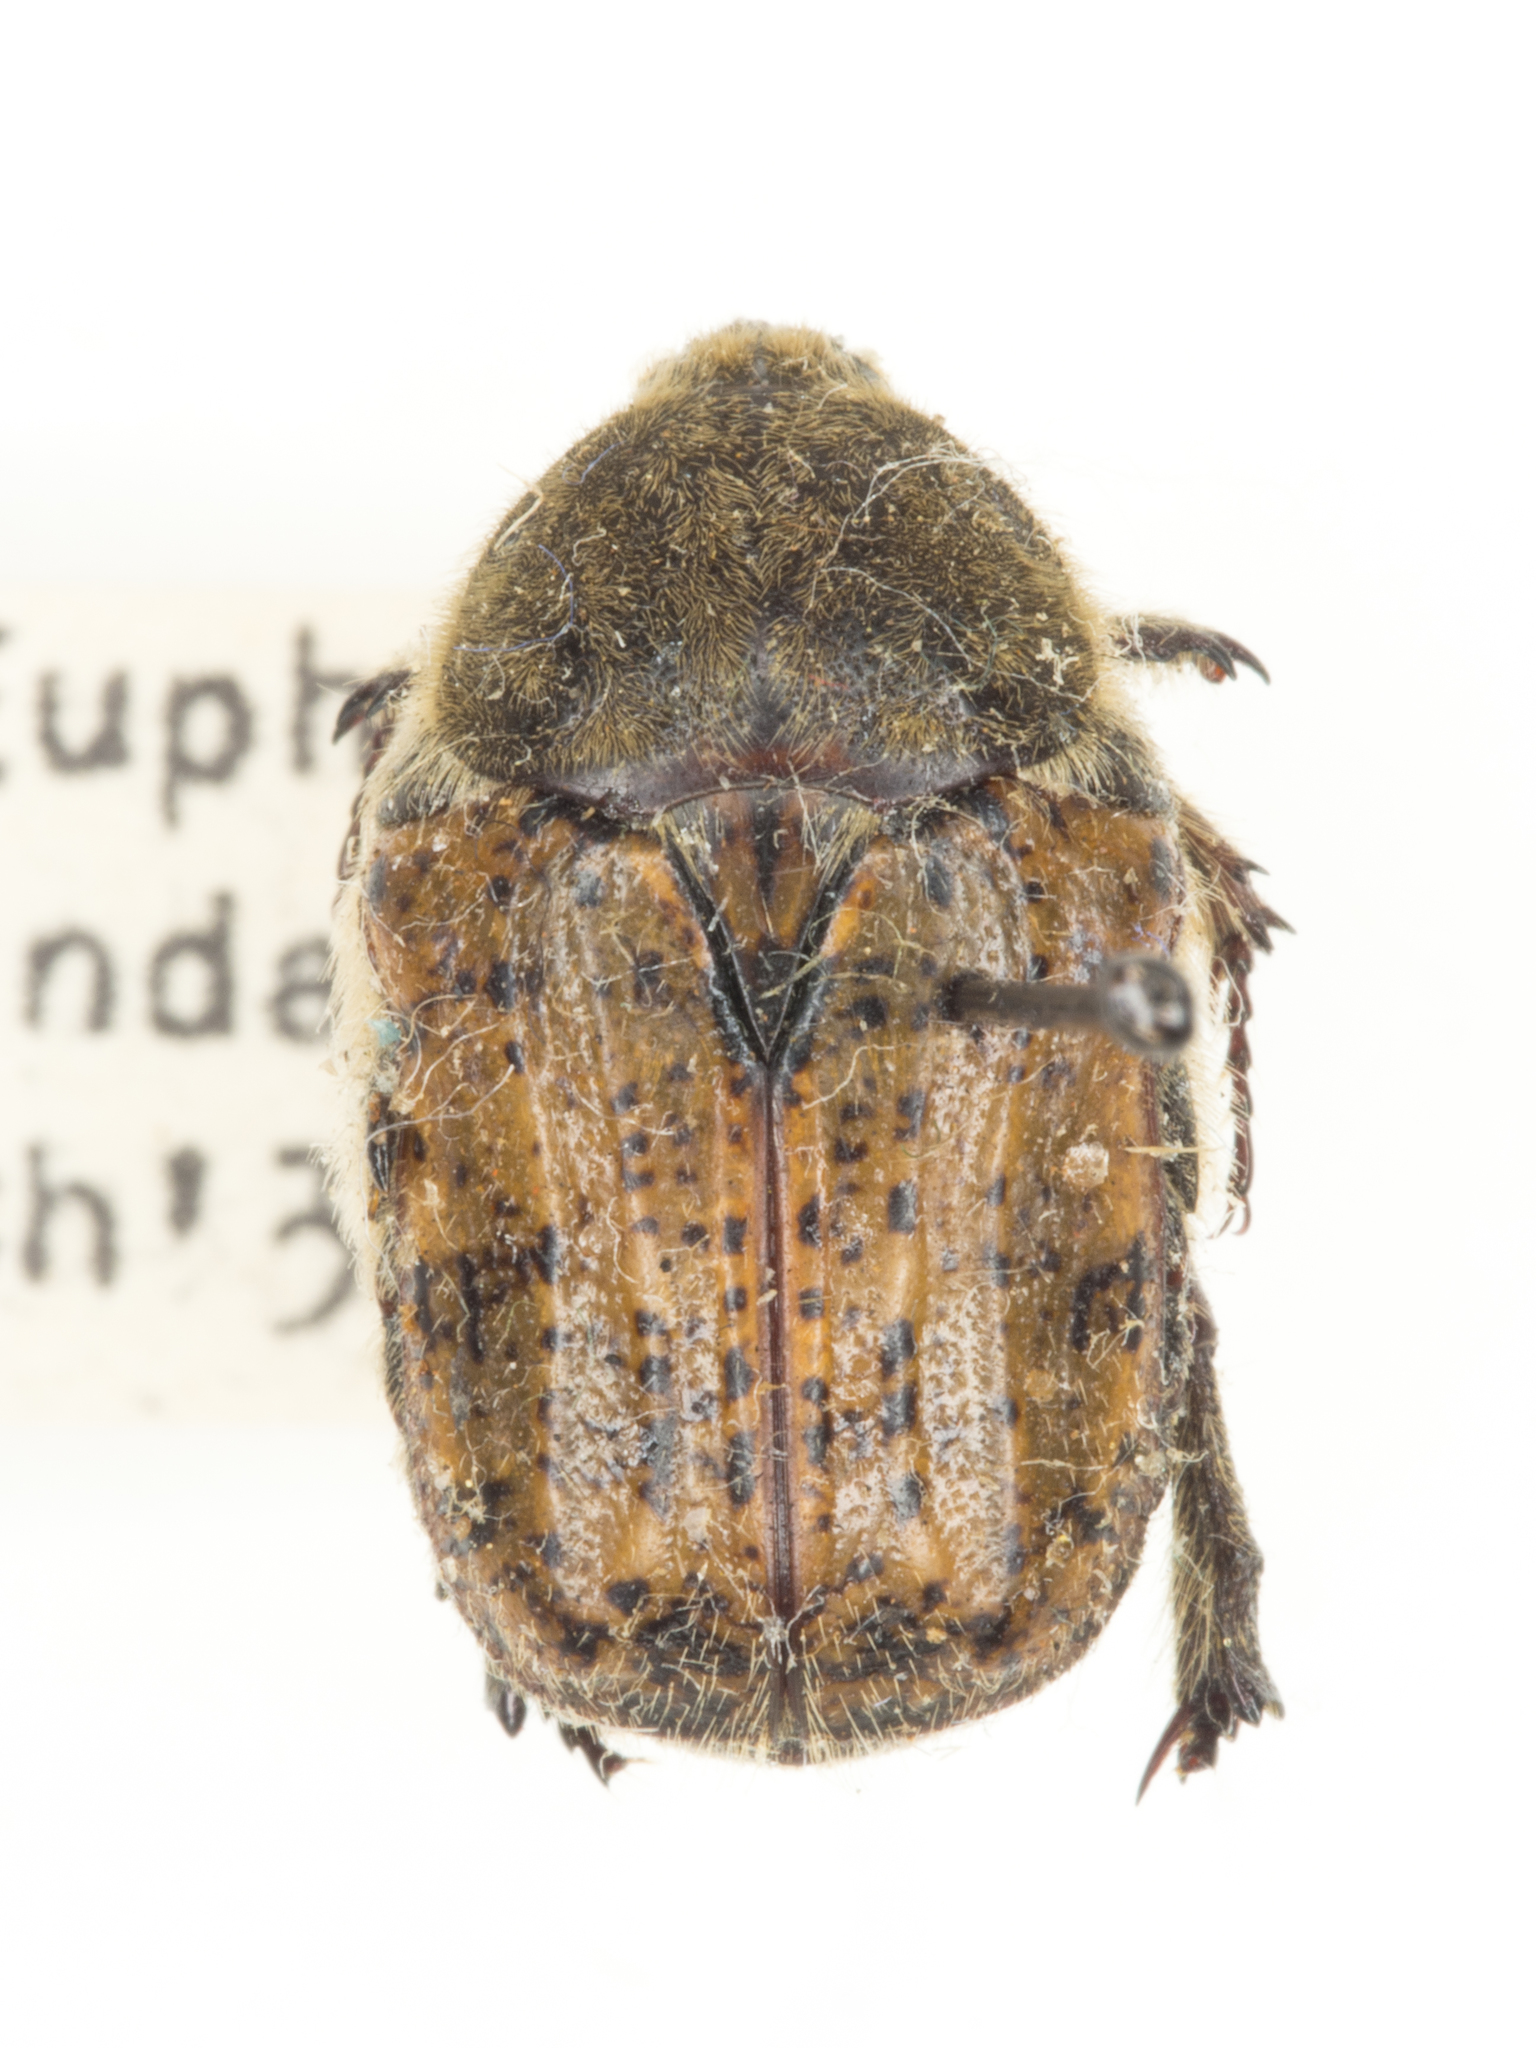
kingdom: Animalia
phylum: Arthropoda
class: Insecta
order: Coleoptera
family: Scarabaeidae
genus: Euphoria
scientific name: Euphoria inda
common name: Bumble flower beetle
